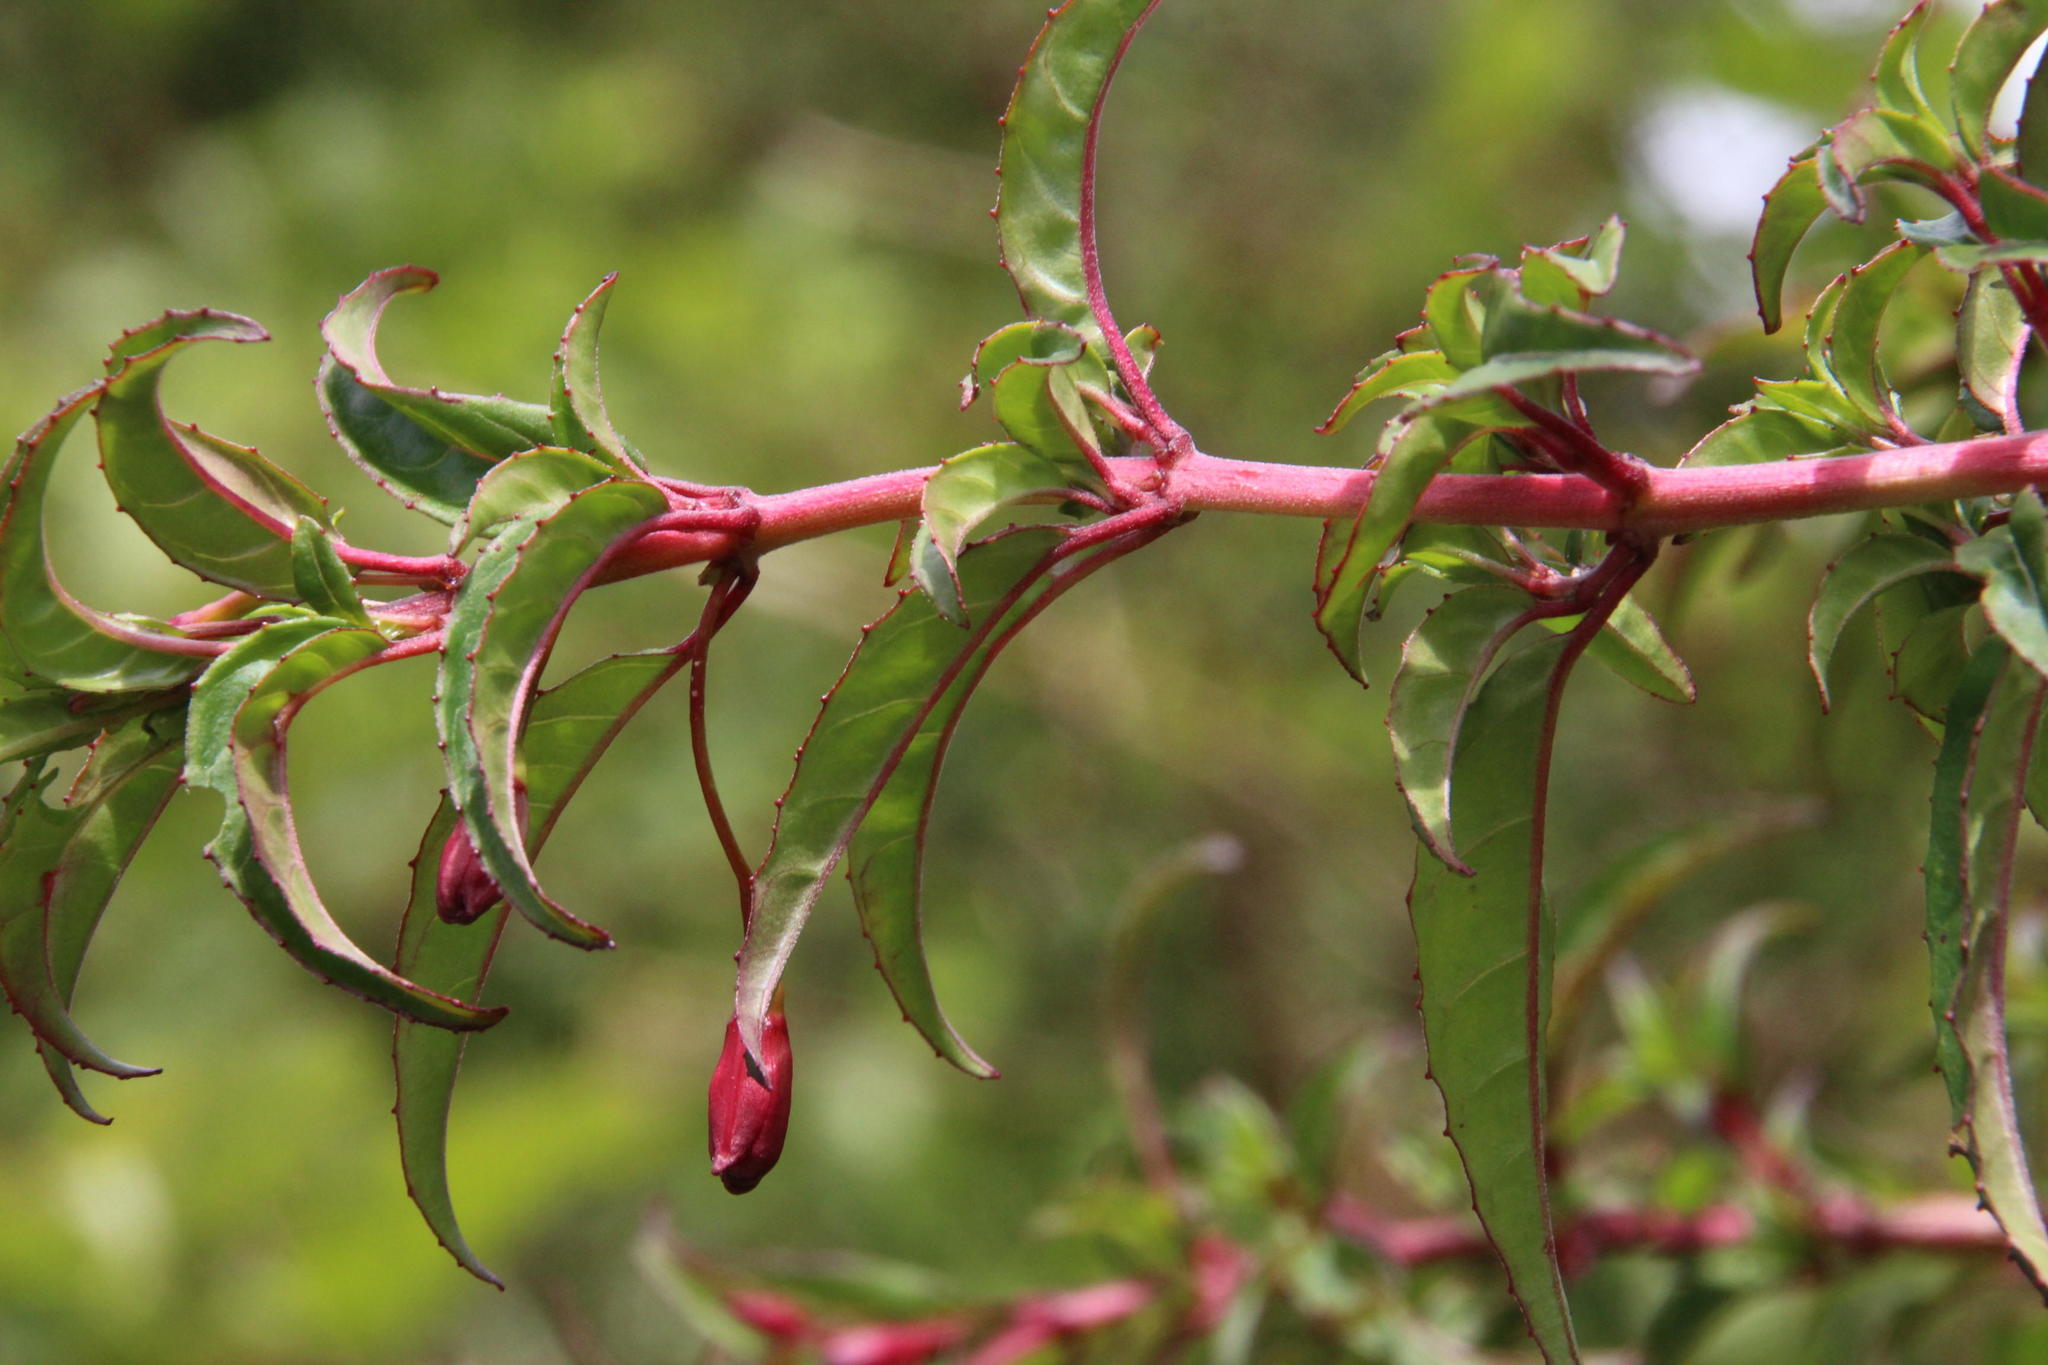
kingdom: Plantae
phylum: Tracheophyta
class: Magnoliopsida
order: Myrtales
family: Onagraceae
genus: Fuchsia
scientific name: Fuchsia magellanica
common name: Hardy fuchsia
